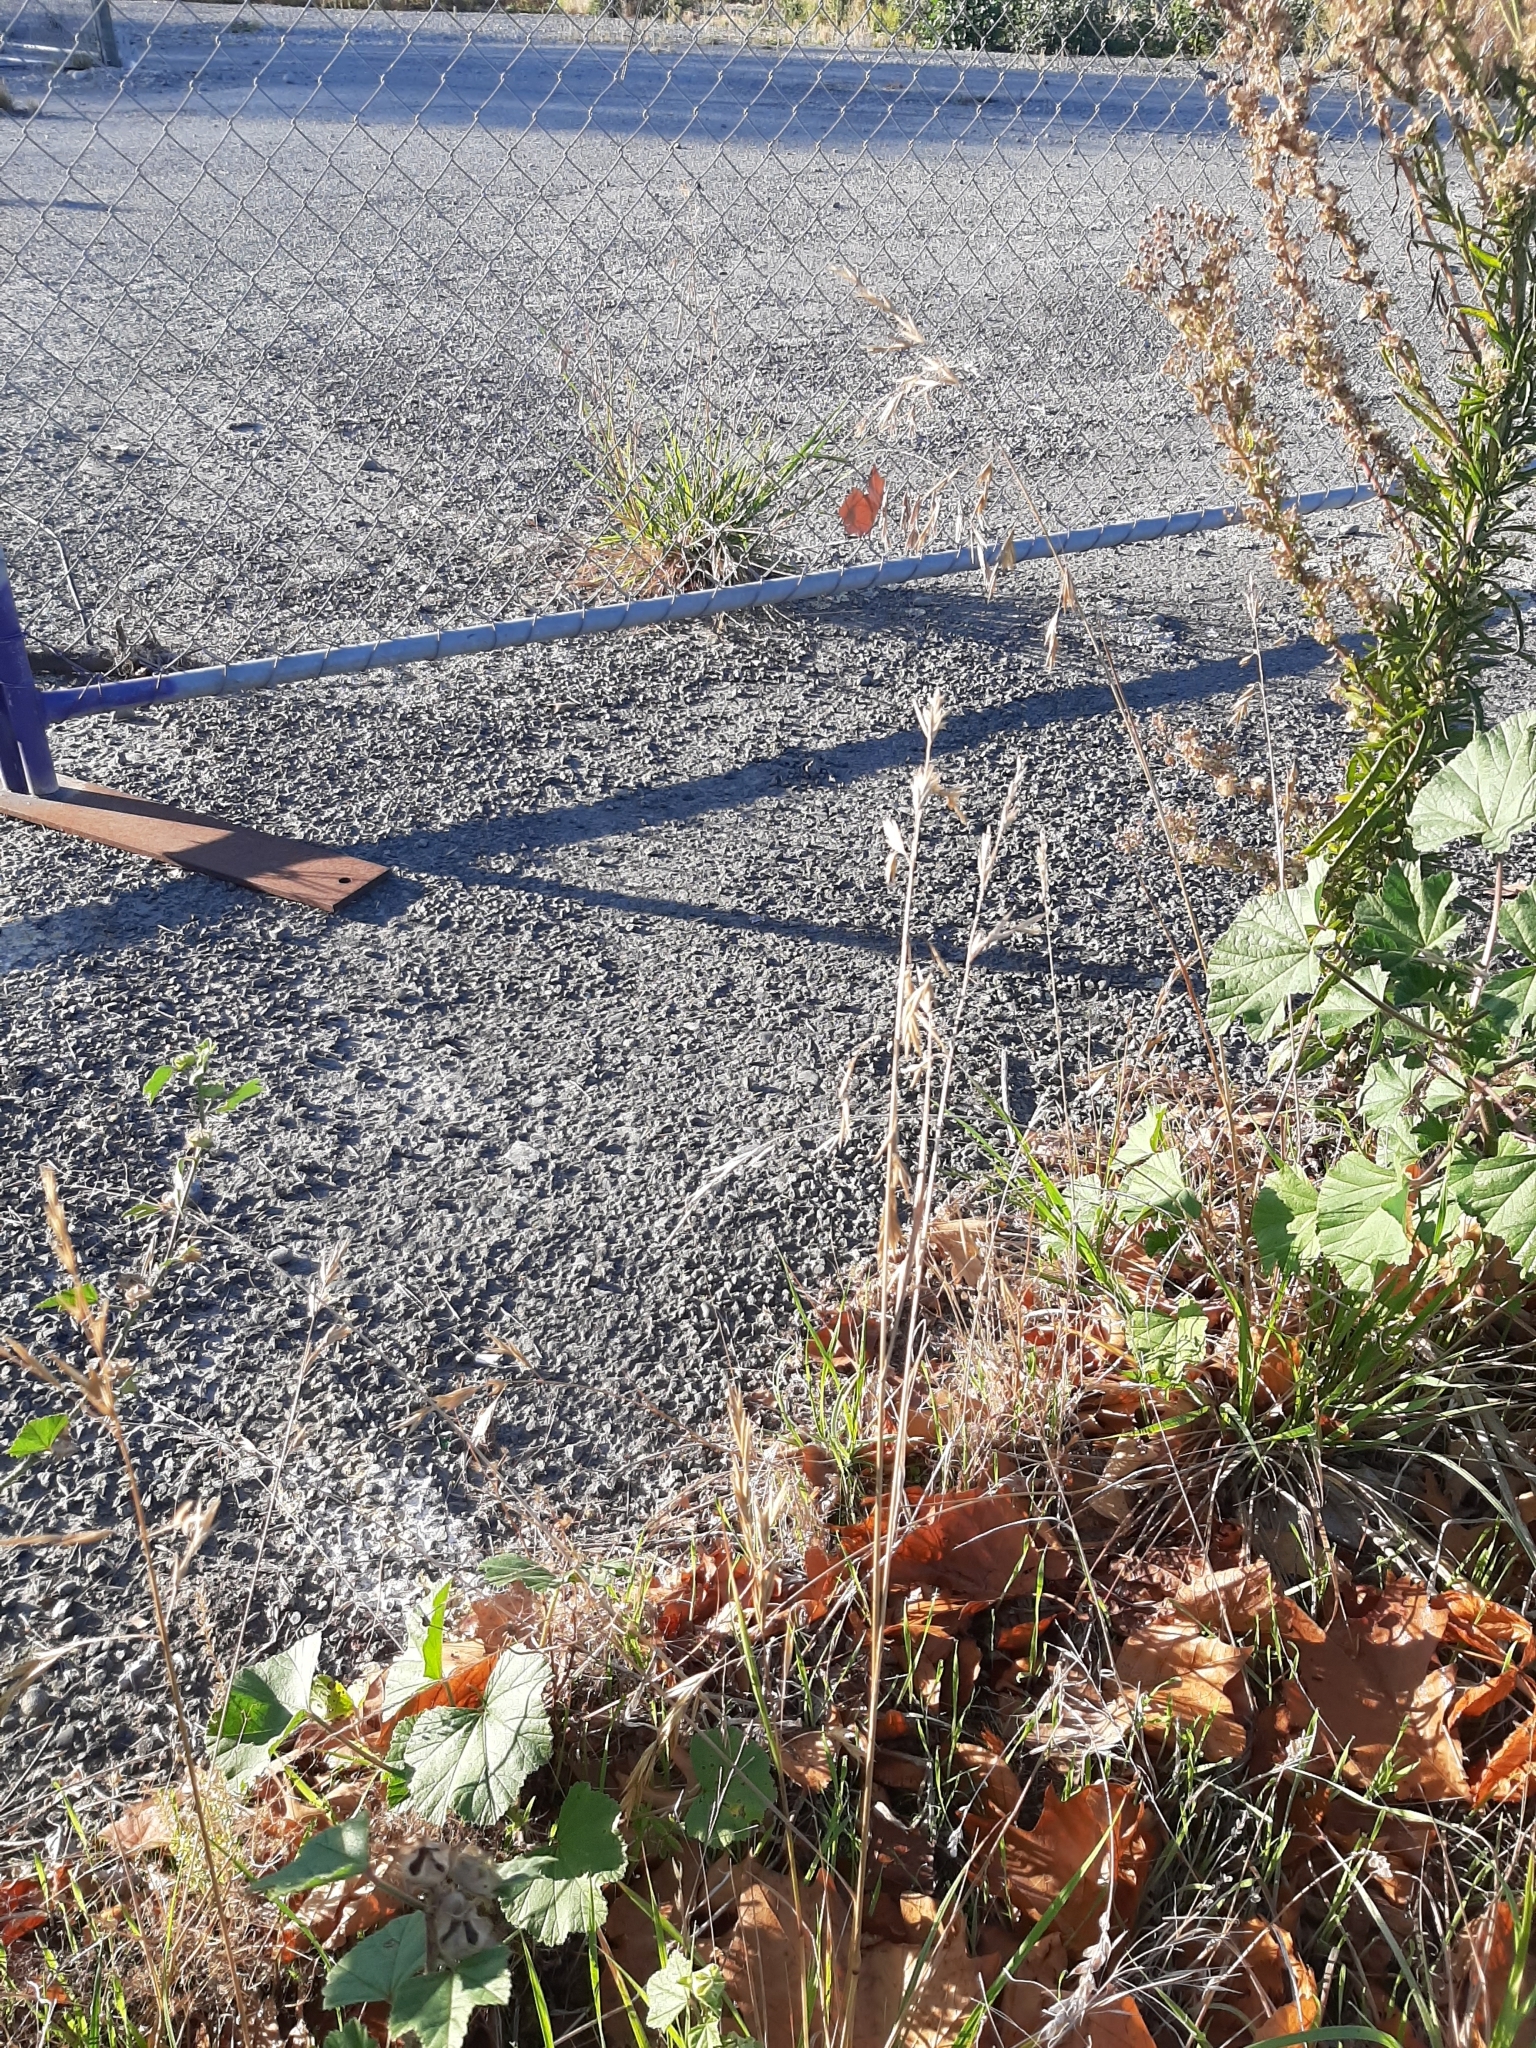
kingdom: Plantae
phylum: Tracheophyta
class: Liliopsida
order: Poales
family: Poaceae
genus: Bromus
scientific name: Bromus catharticus
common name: Rescuegrass
